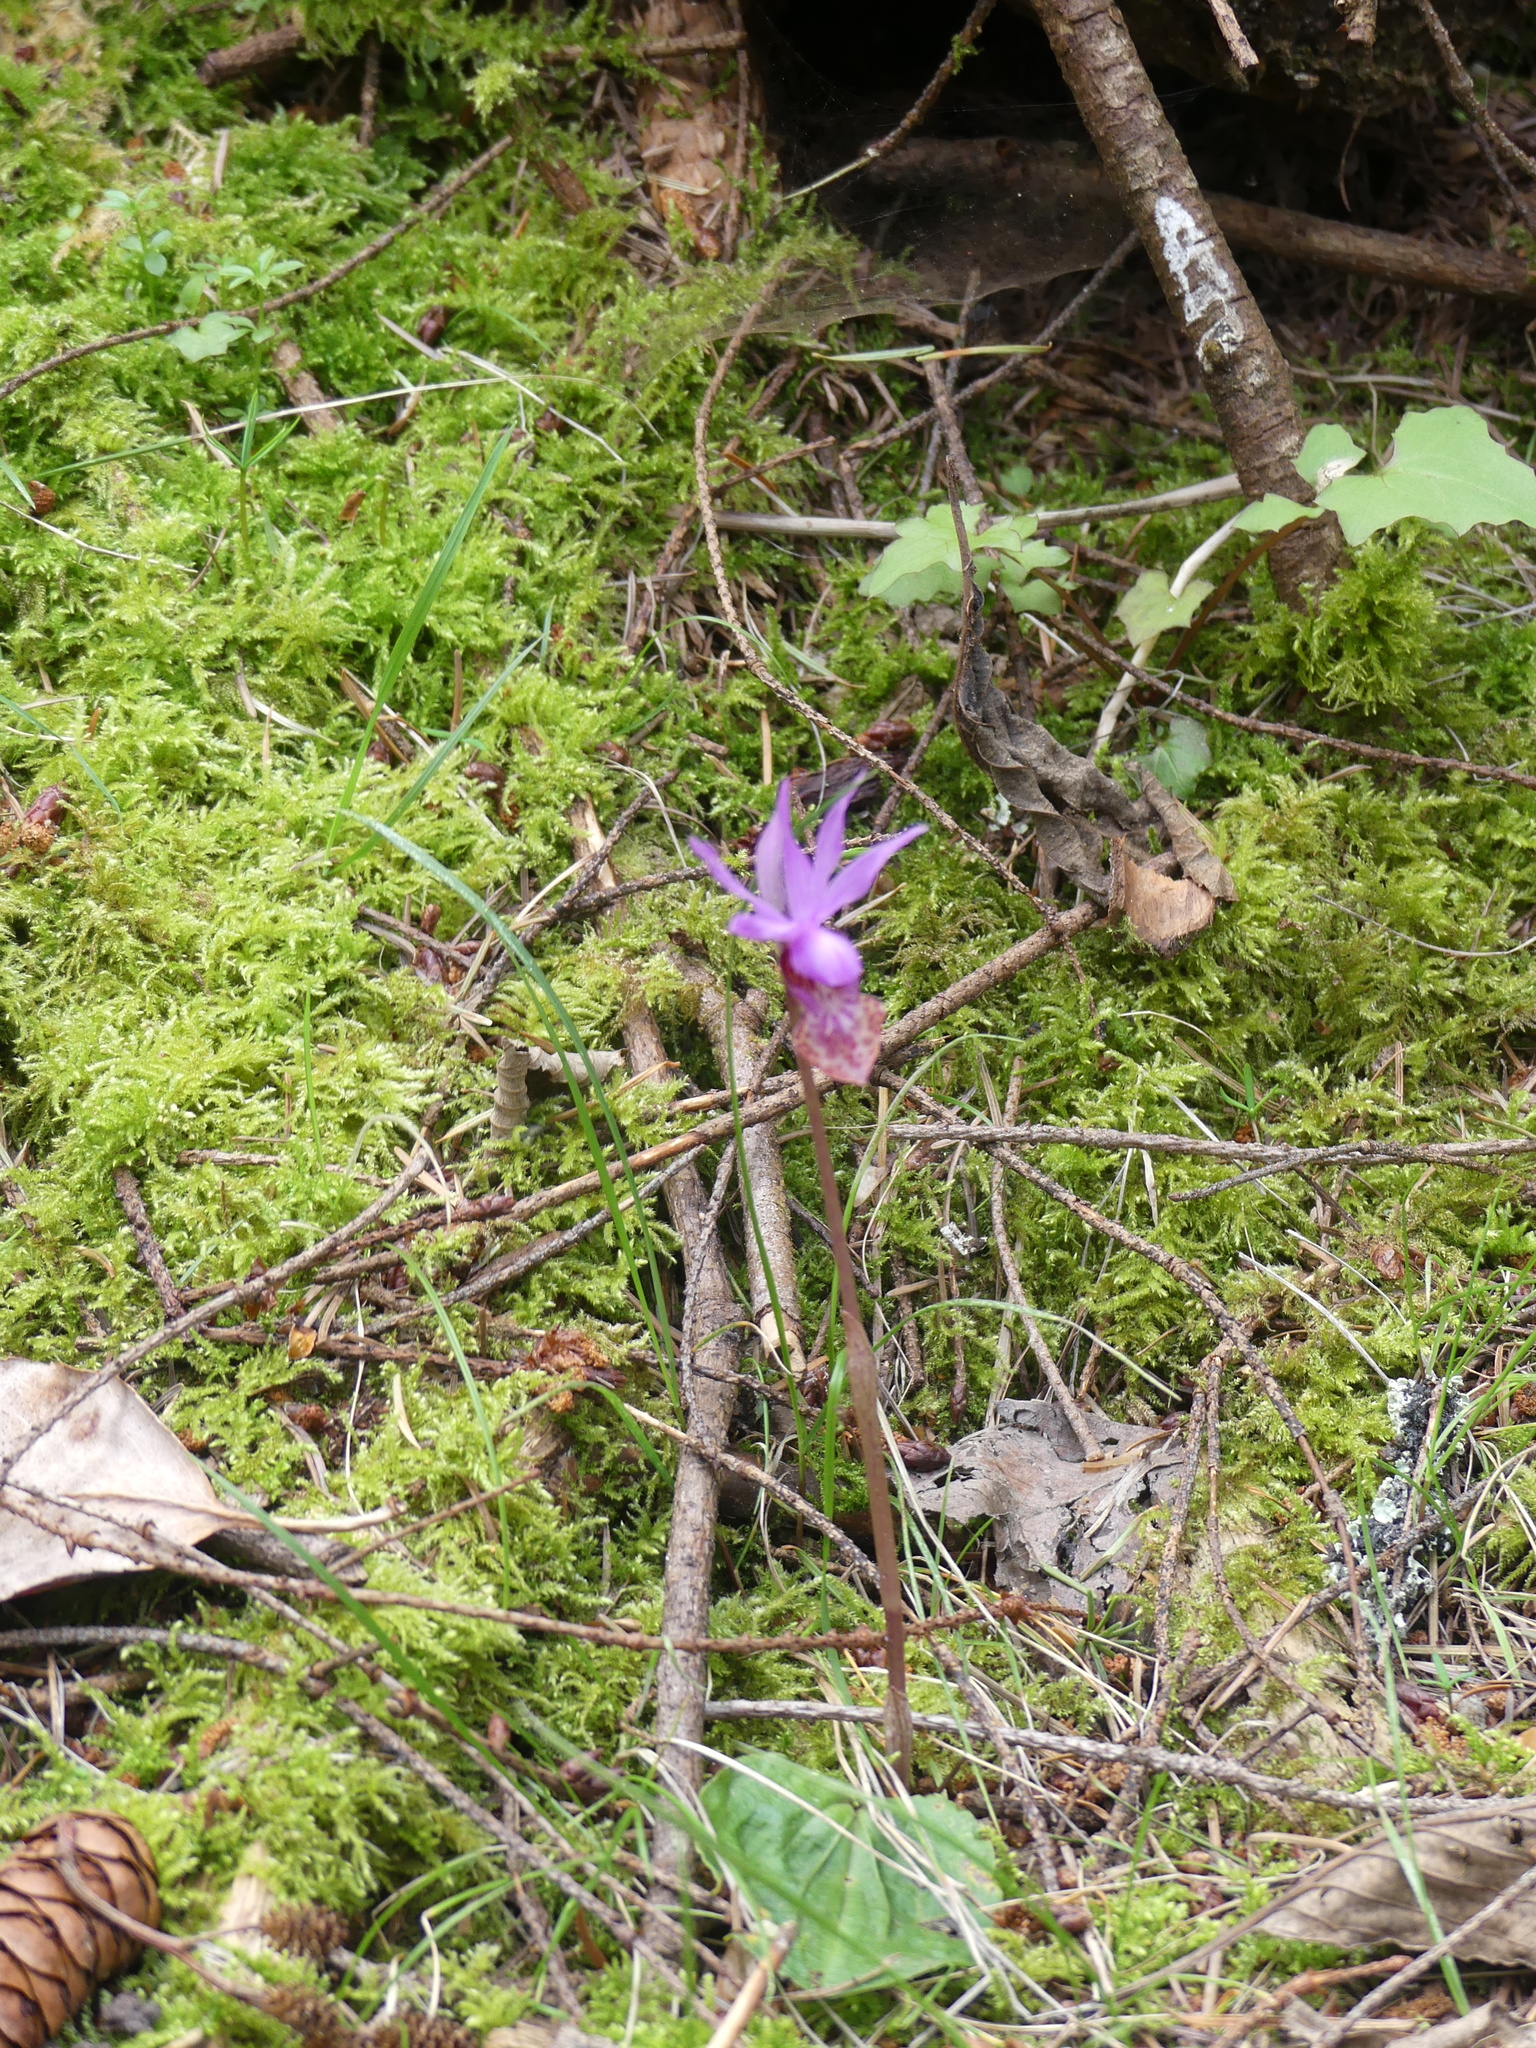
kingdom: Plantae
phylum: Tracheophyta
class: Liliopsida
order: Asparagales
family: Orchidaceae
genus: Calypso
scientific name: Calypso bulbosa
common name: Calypso
